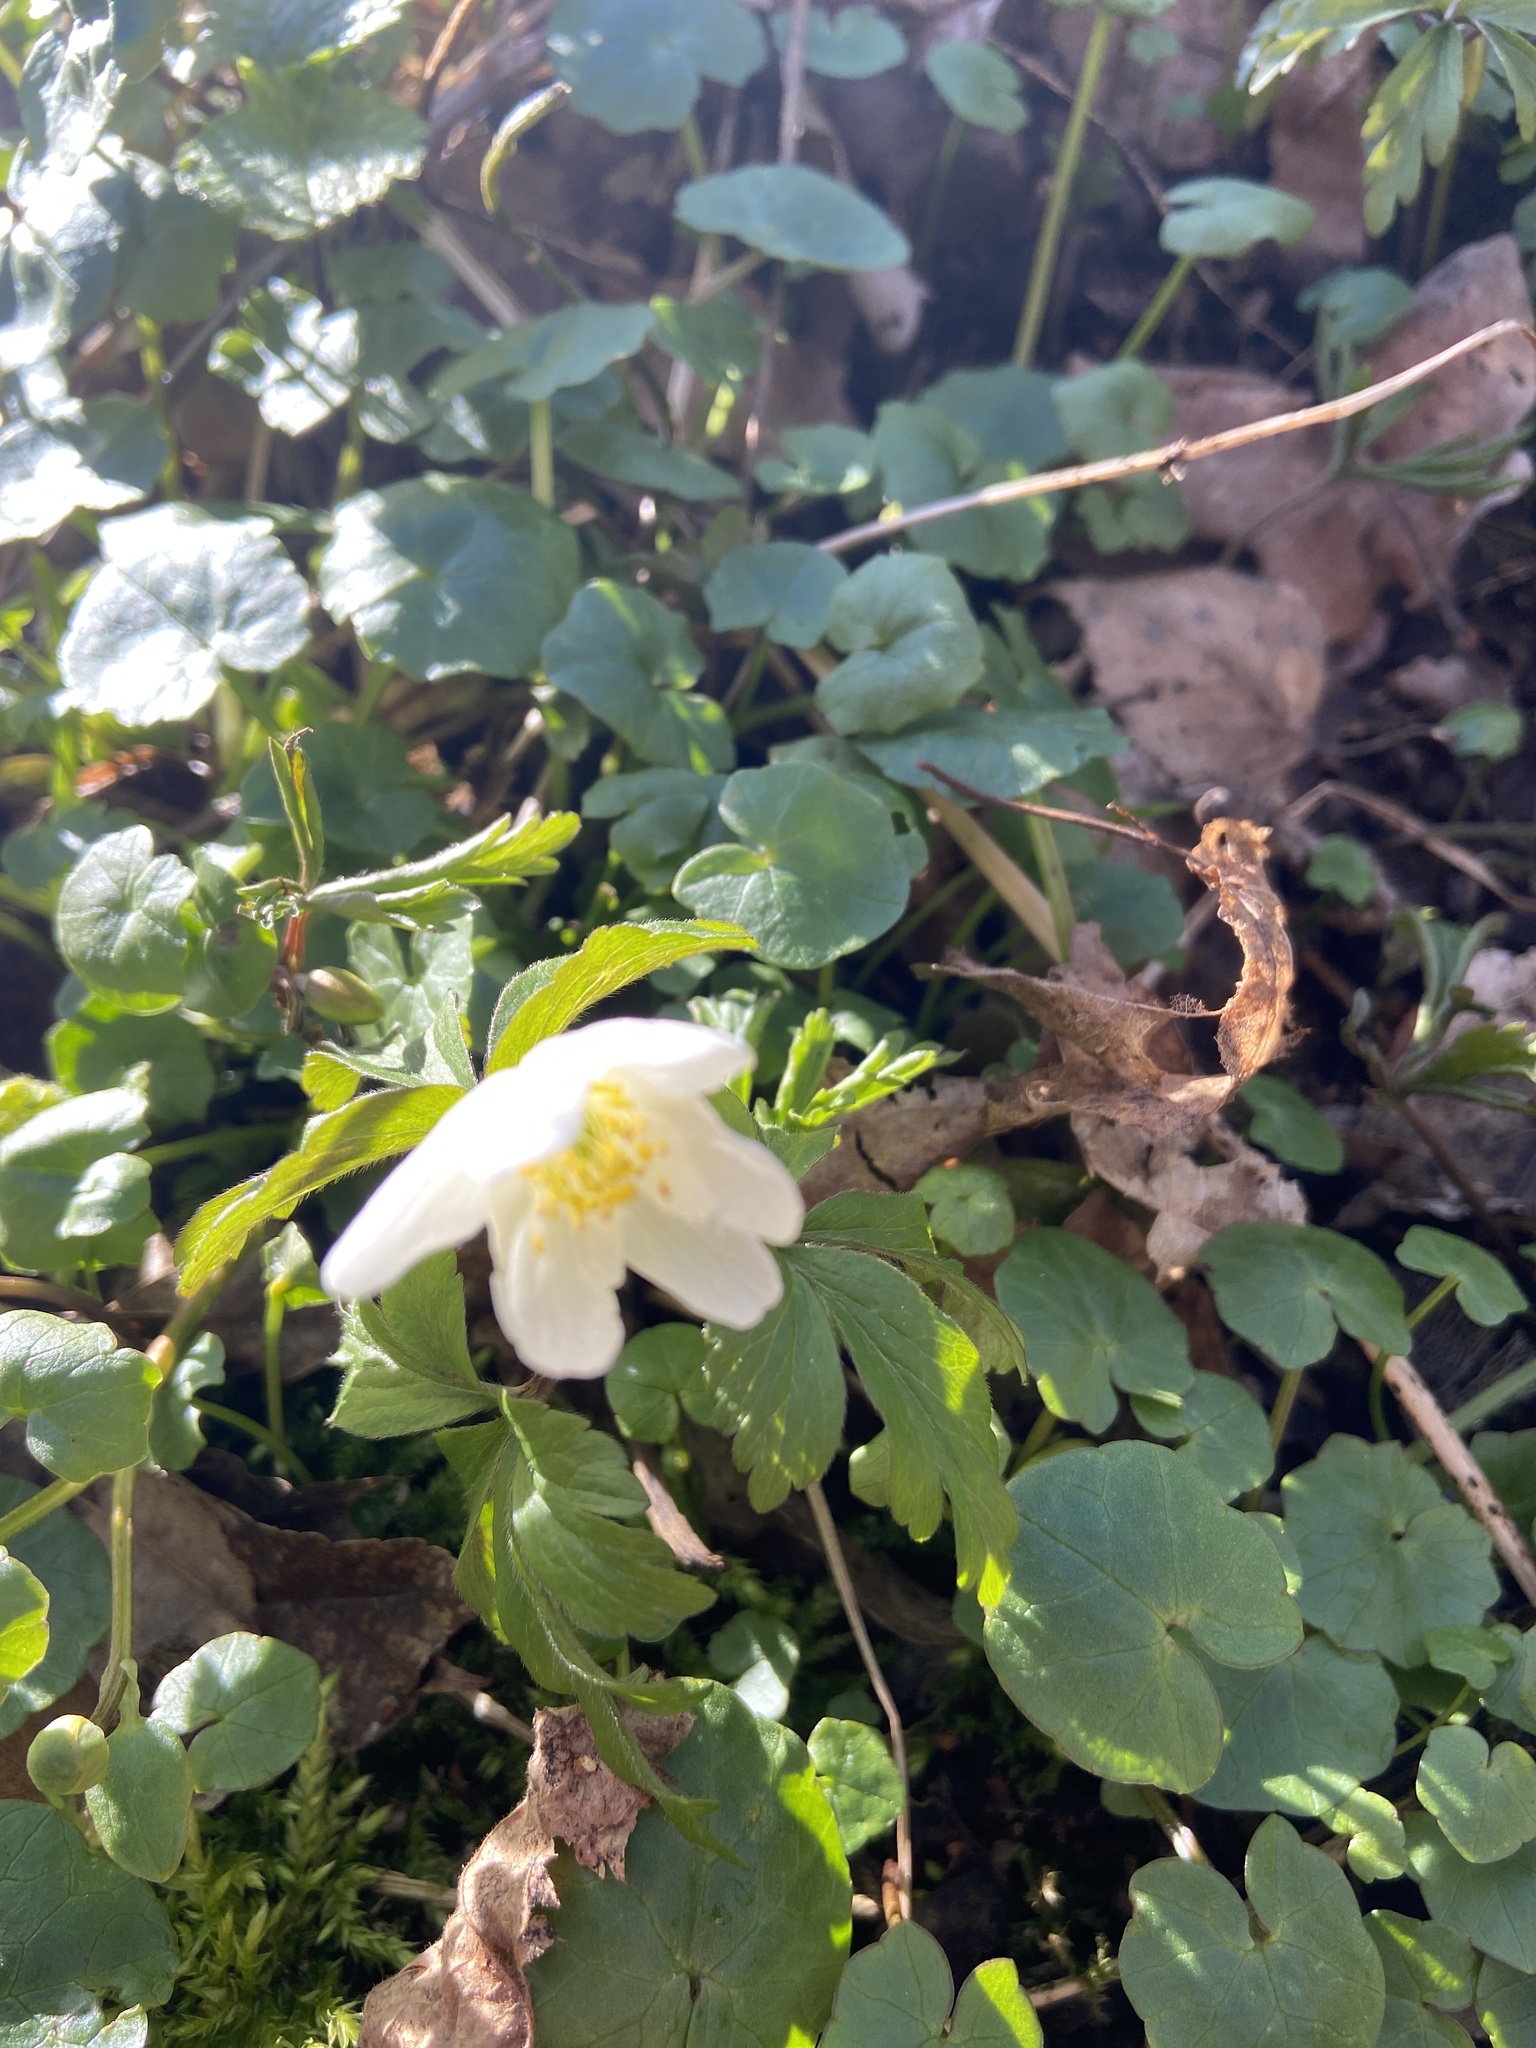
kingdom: Plantae
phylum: Tracheophyta
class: Magnoliopsida
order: Ranunculales
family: Ranunculaceae
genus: Anemone
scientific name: Anemone nemorosa
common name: Wood anemone
